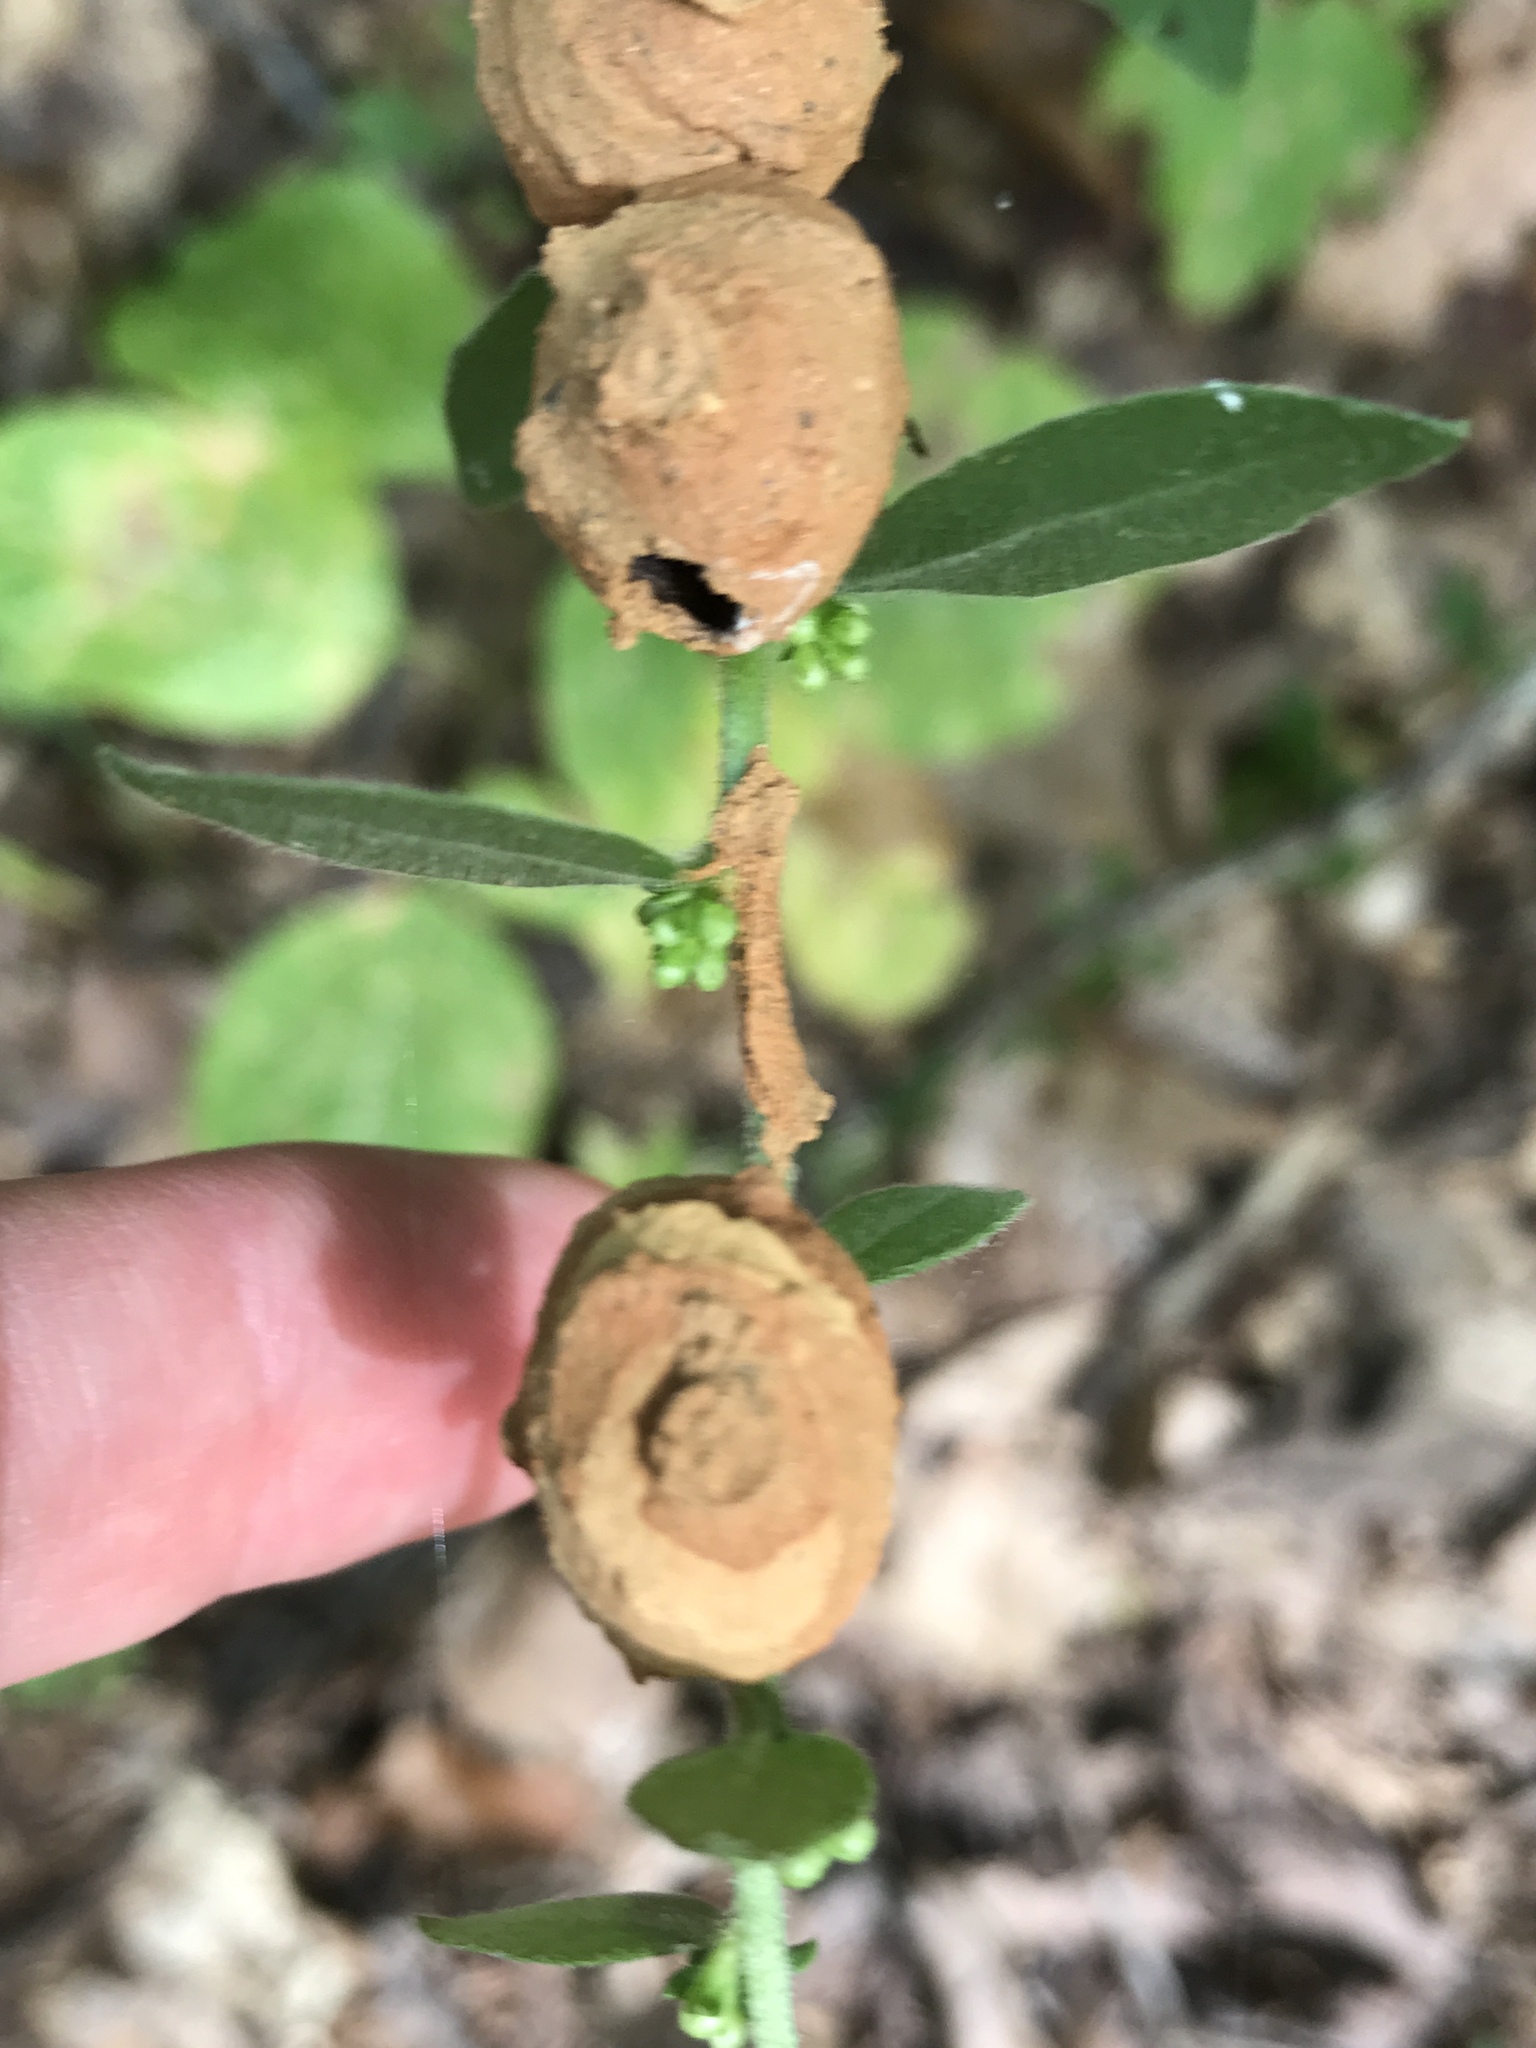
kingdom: Animalia
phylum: Arthropoda
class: Insecta
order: Hymenoptera
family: Vespidae
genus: Eumenes
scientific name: Eumenes
